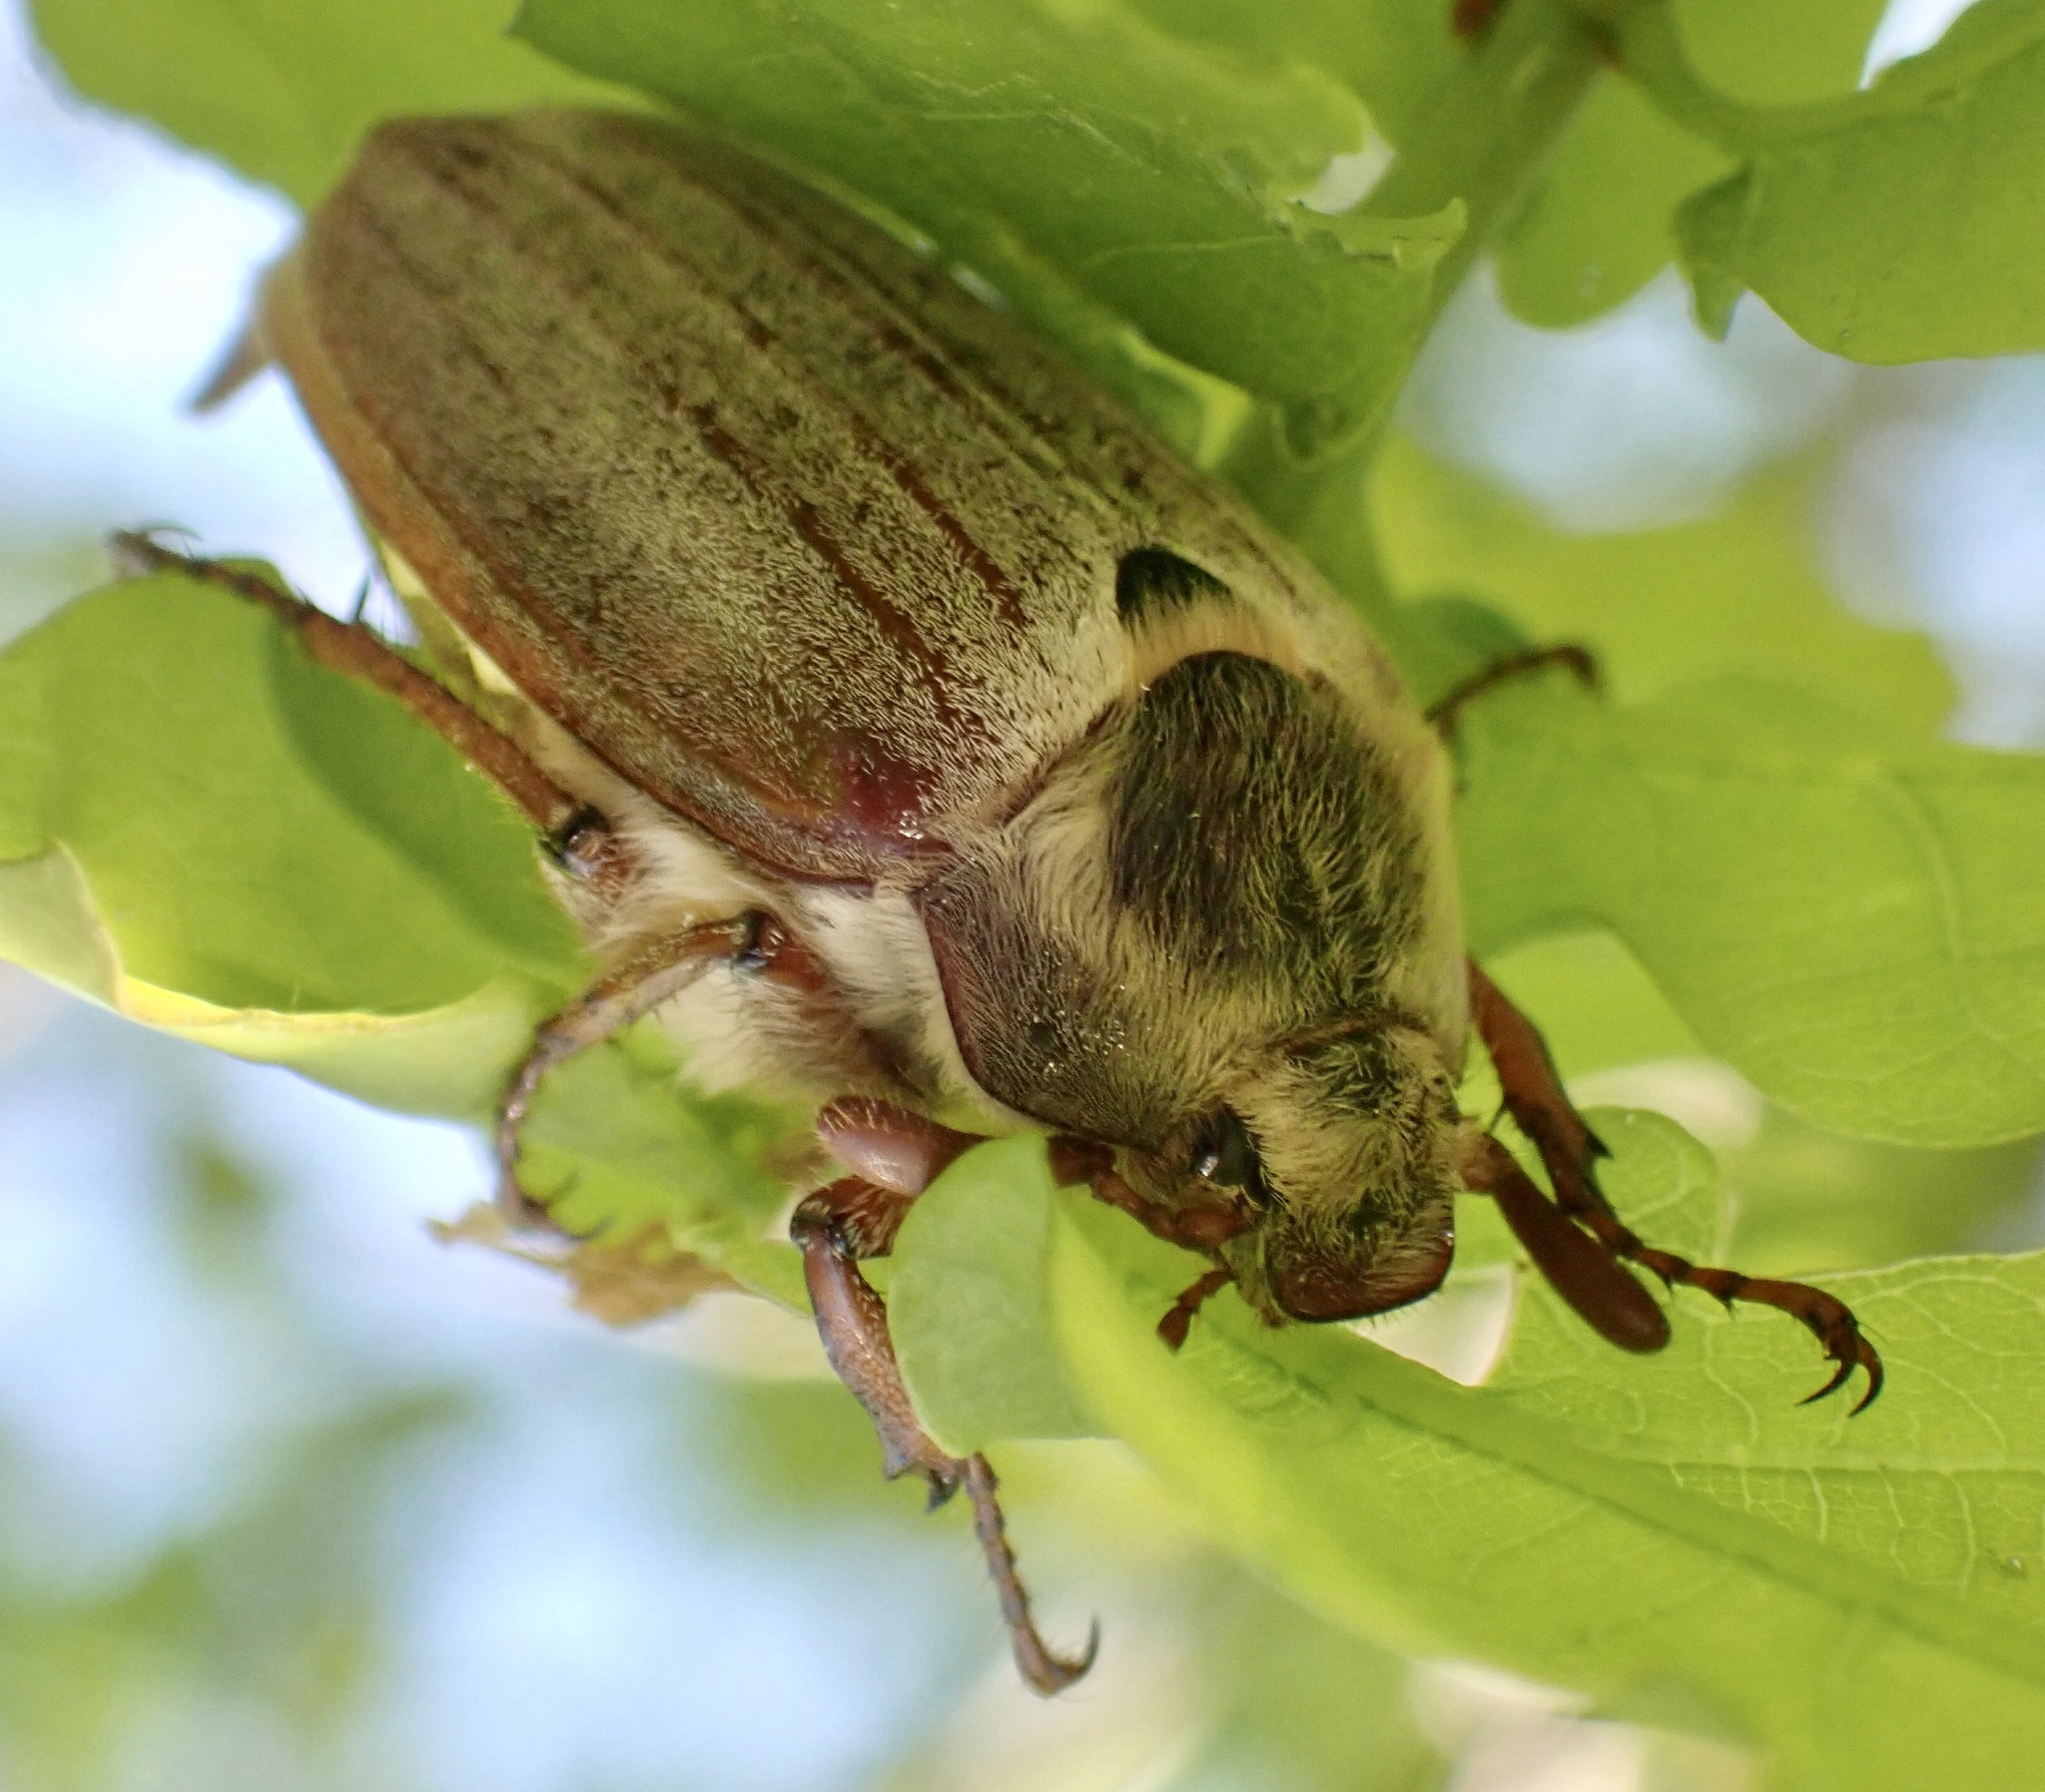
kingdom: Animalia
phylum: Arthropoda
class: Insecta
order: Coleoptera
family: Scarabaeidae
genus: Melolontha
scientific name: Melolontha melolontha
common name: Cockchafer maybeetle
